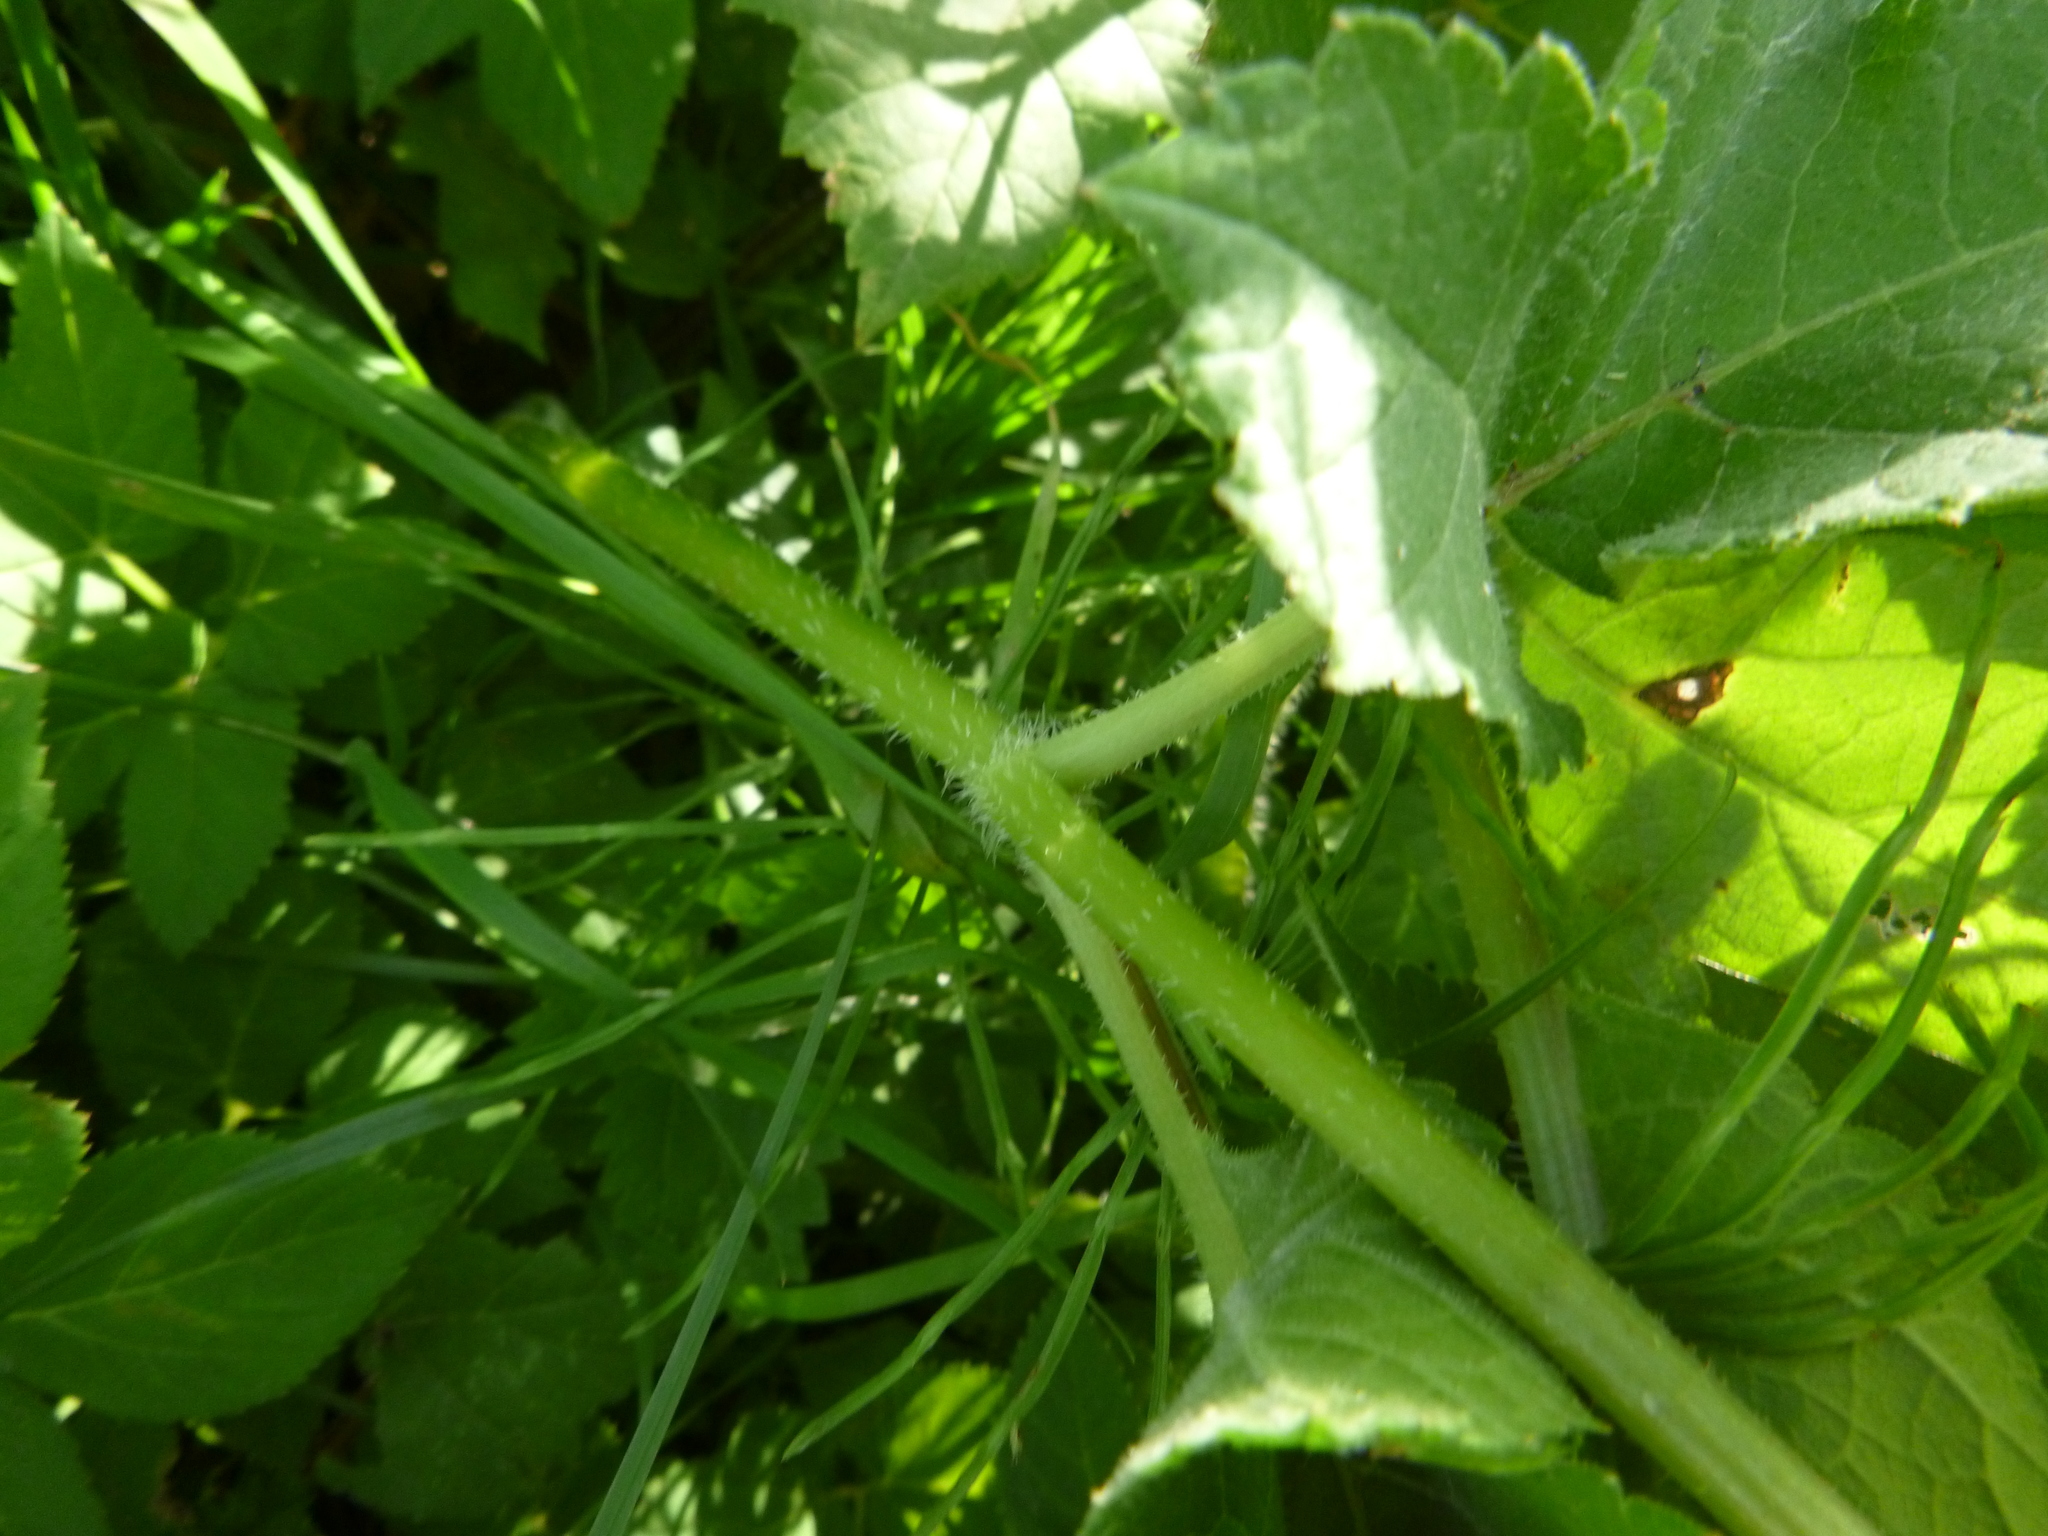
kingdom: Plantae
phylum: Tracheophyta
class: Magnoliopsida
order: Apiales
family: Apiaceae
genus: Heracleum
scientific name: Heracleum sphondylium
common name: Hogweed
